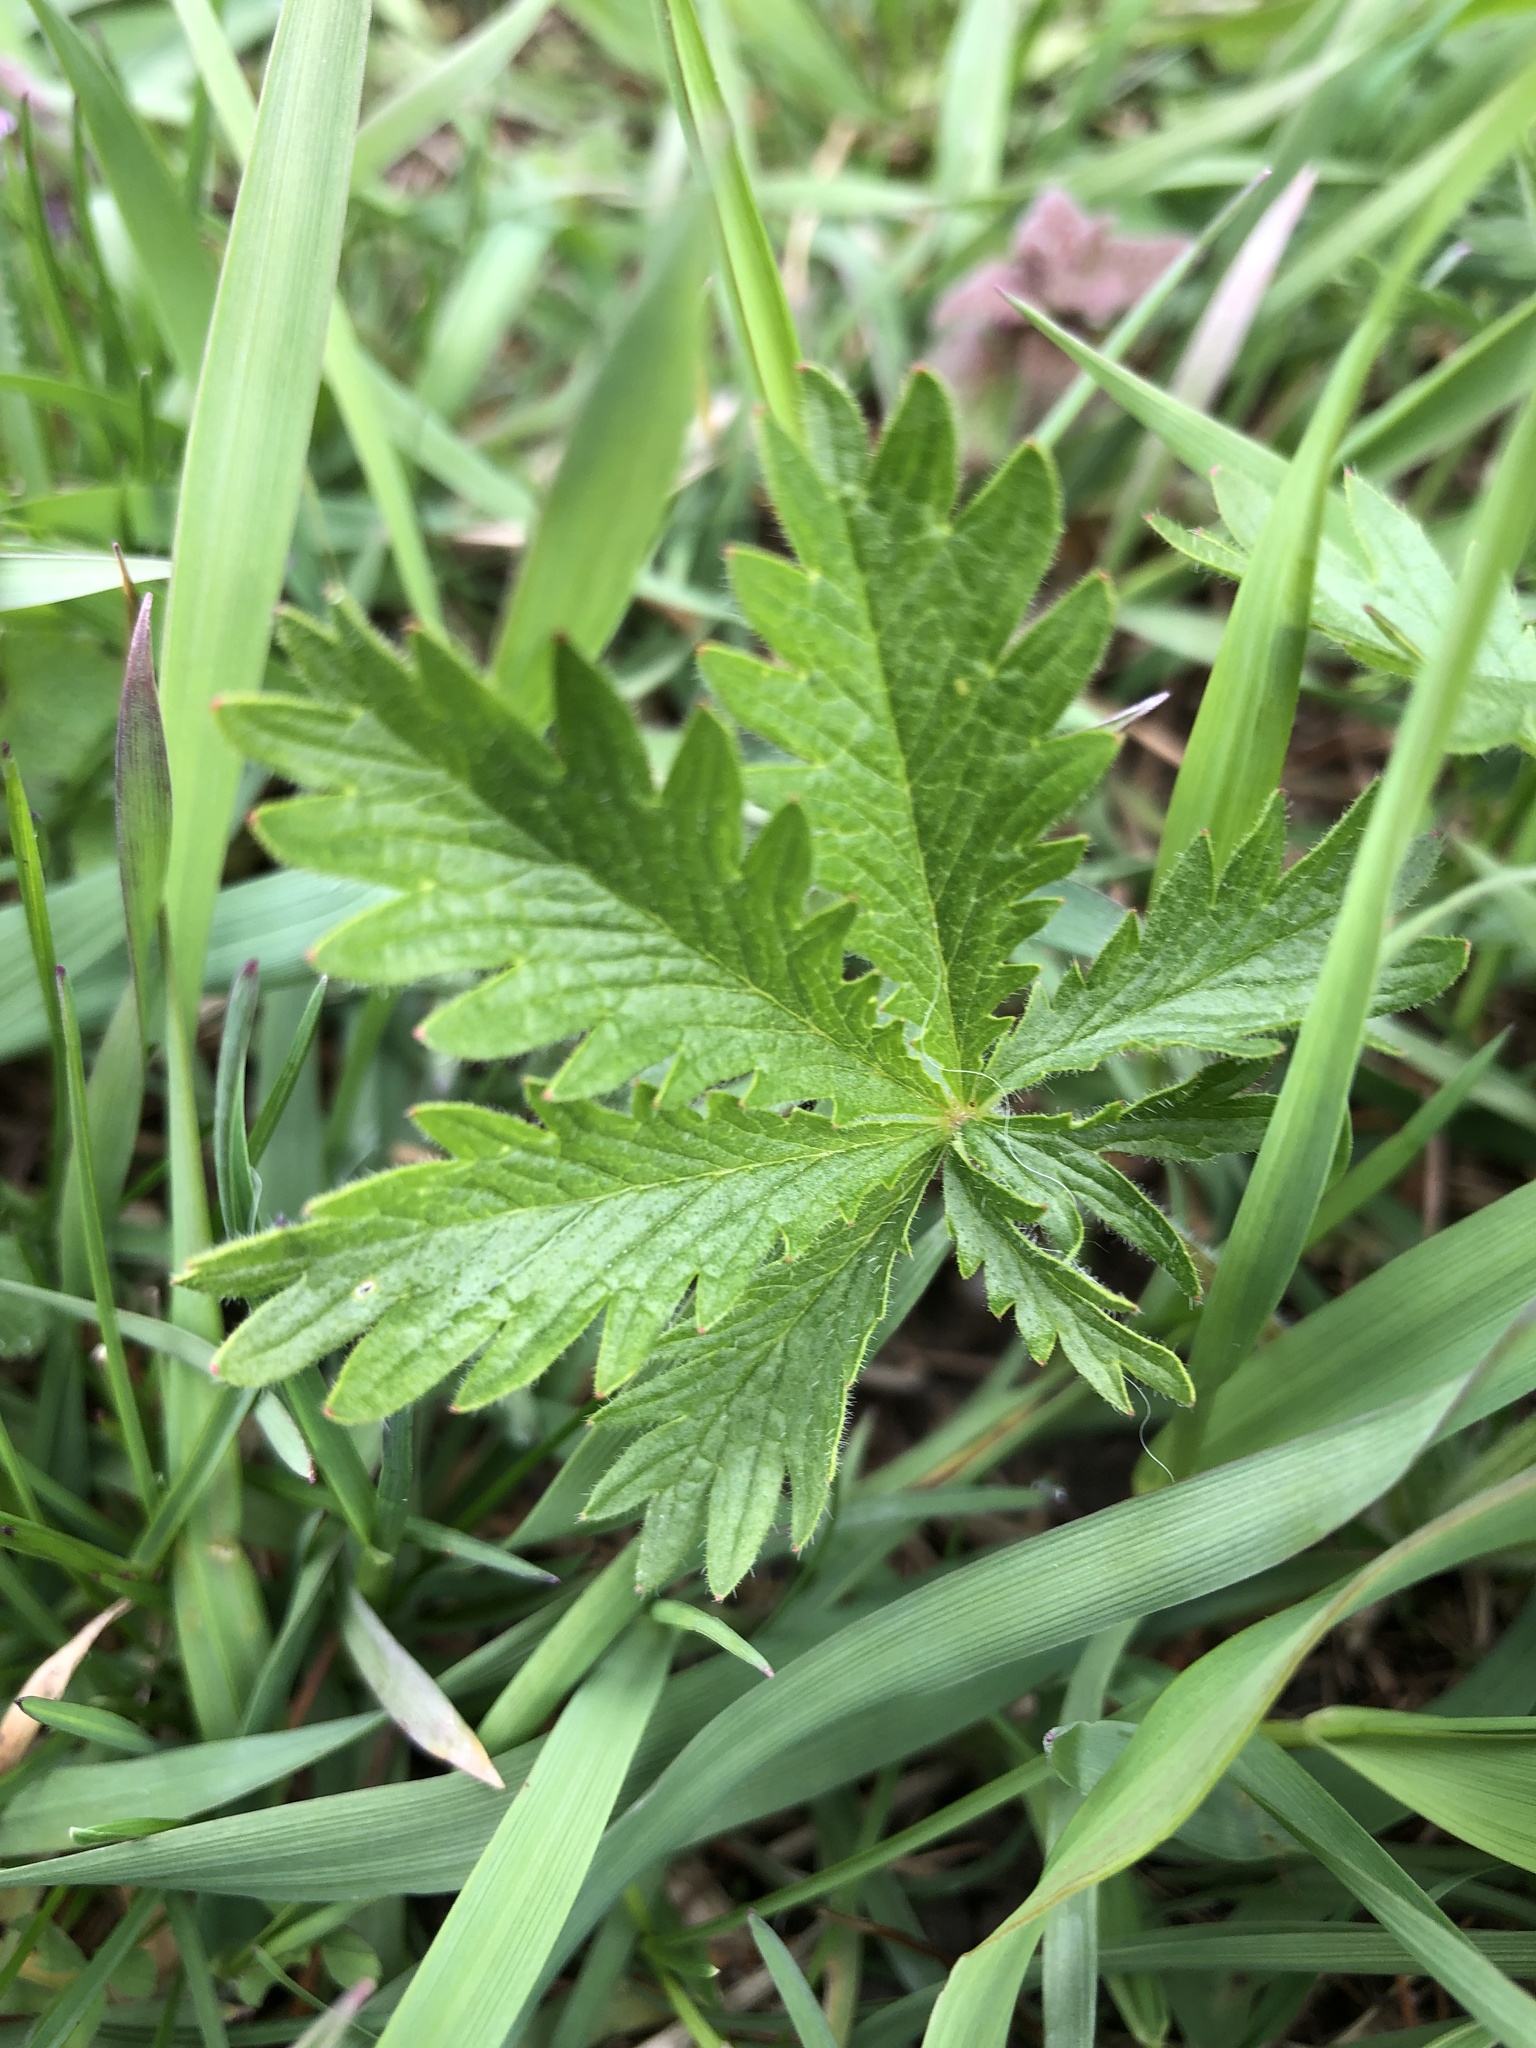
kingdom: Plantae
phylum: Tracheophyta
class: Magnoliopsida
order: Rosales
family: Rosaceae
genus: Potentilla
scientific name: Potentilla recta
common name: Sulphur cinquefoil
